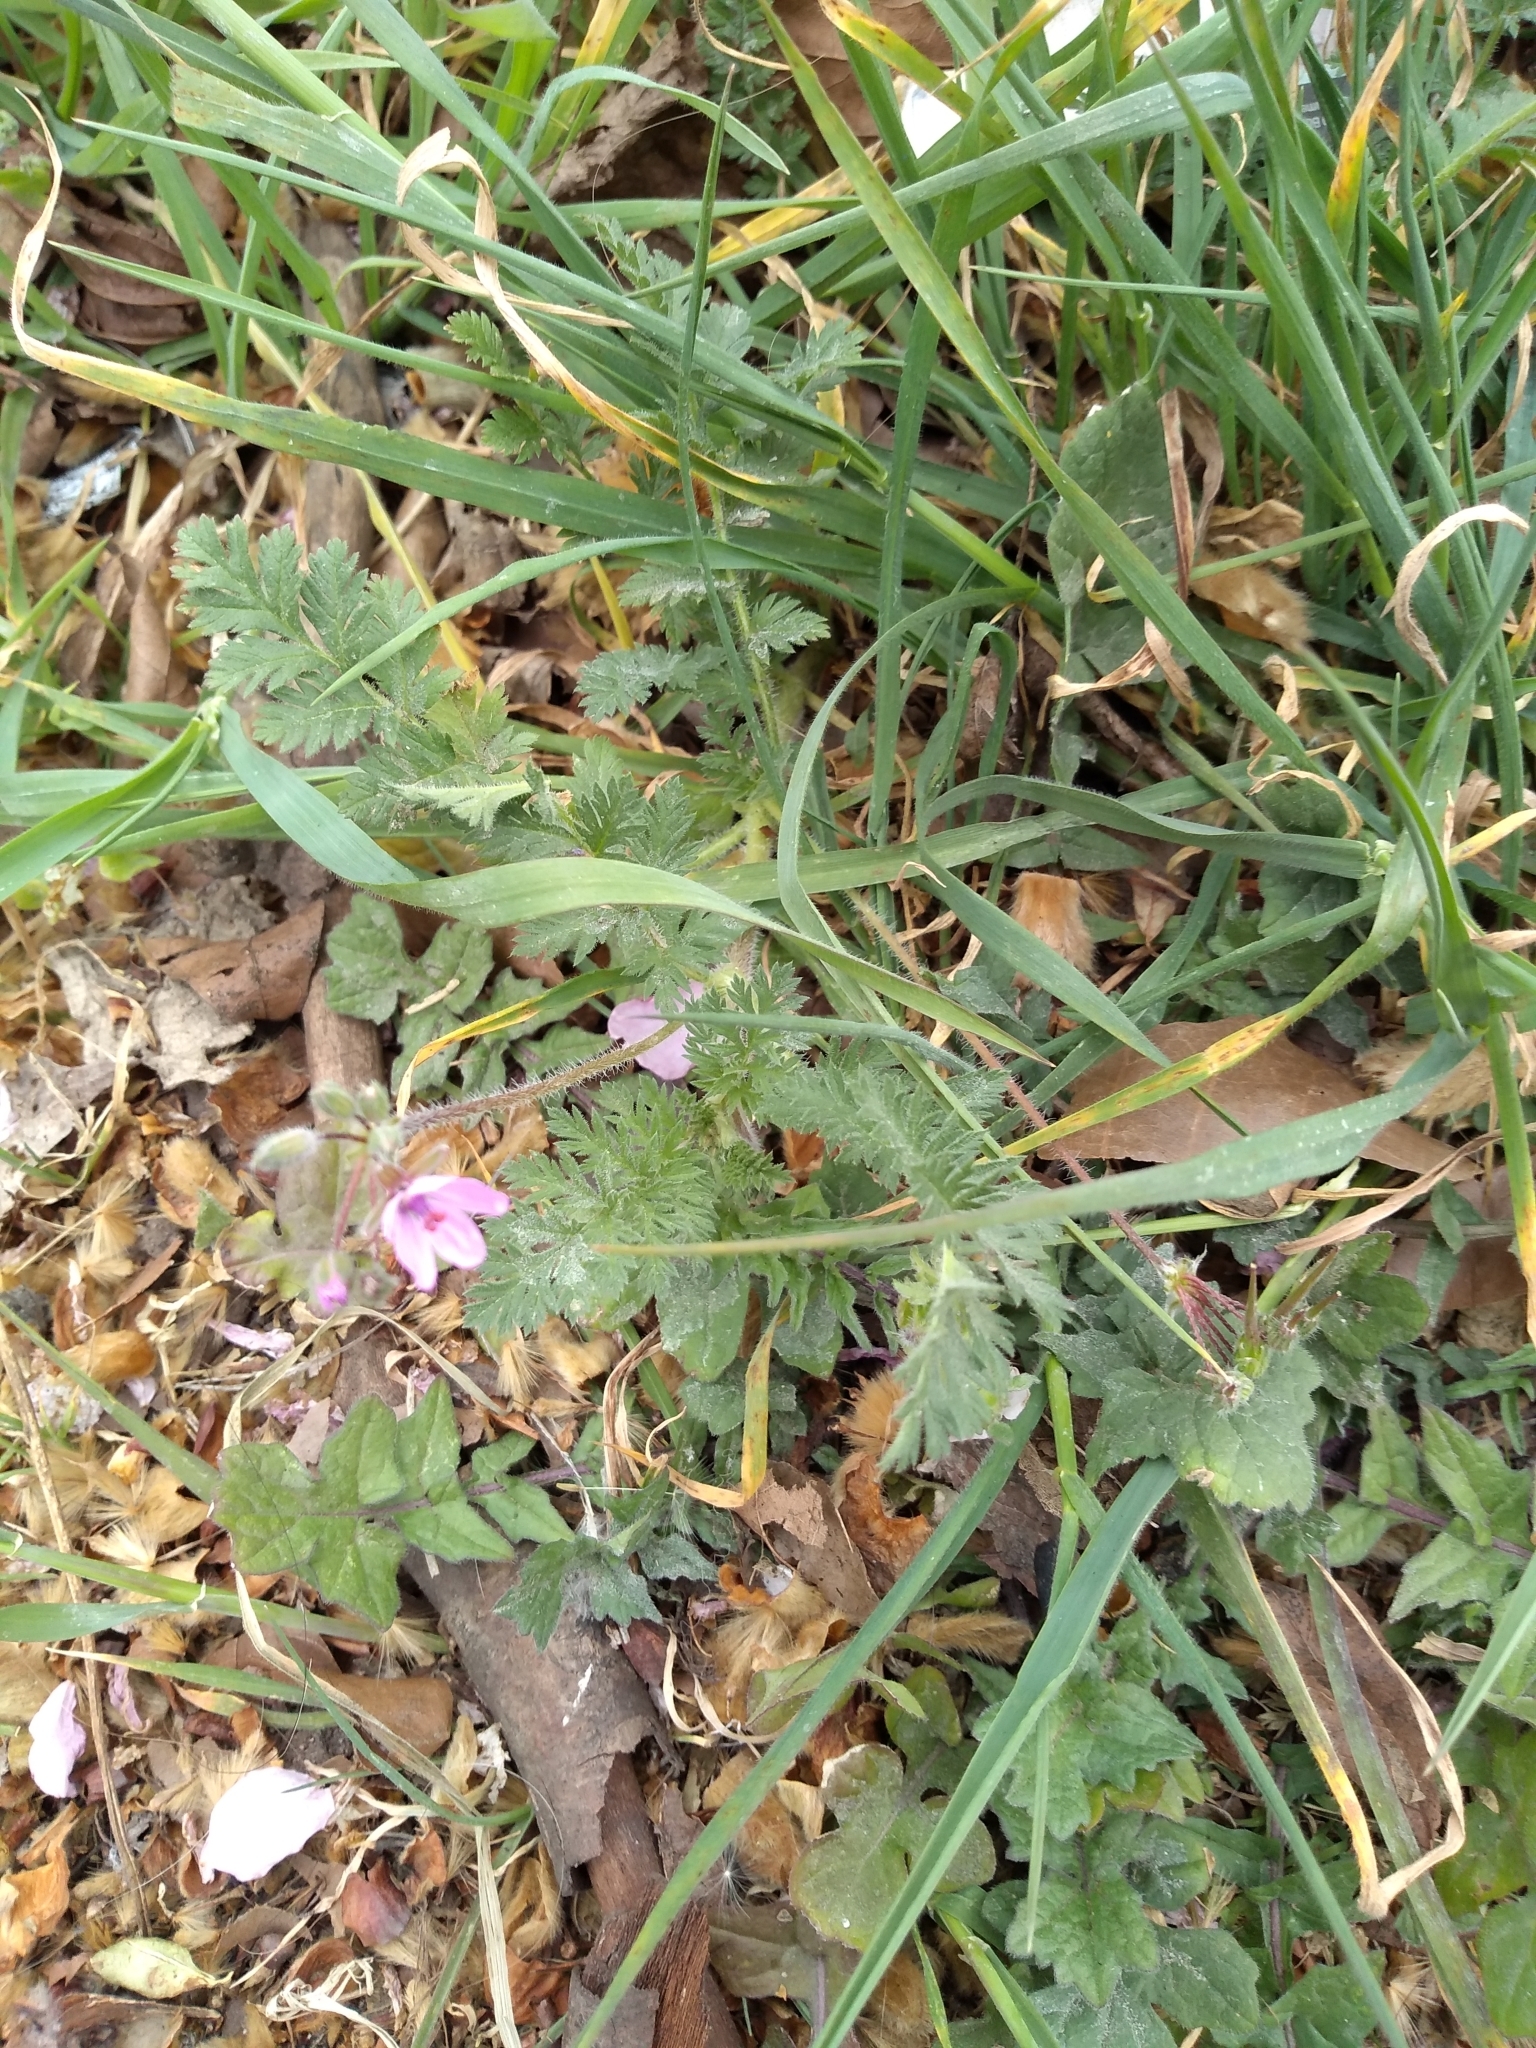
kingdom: Plantae
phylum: Tracheophyta
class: Magnoliopsida
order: Geraniales
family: Geraniaceae
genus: Erodium
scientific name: Erodium cicutarium
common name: Common stork's-bill
